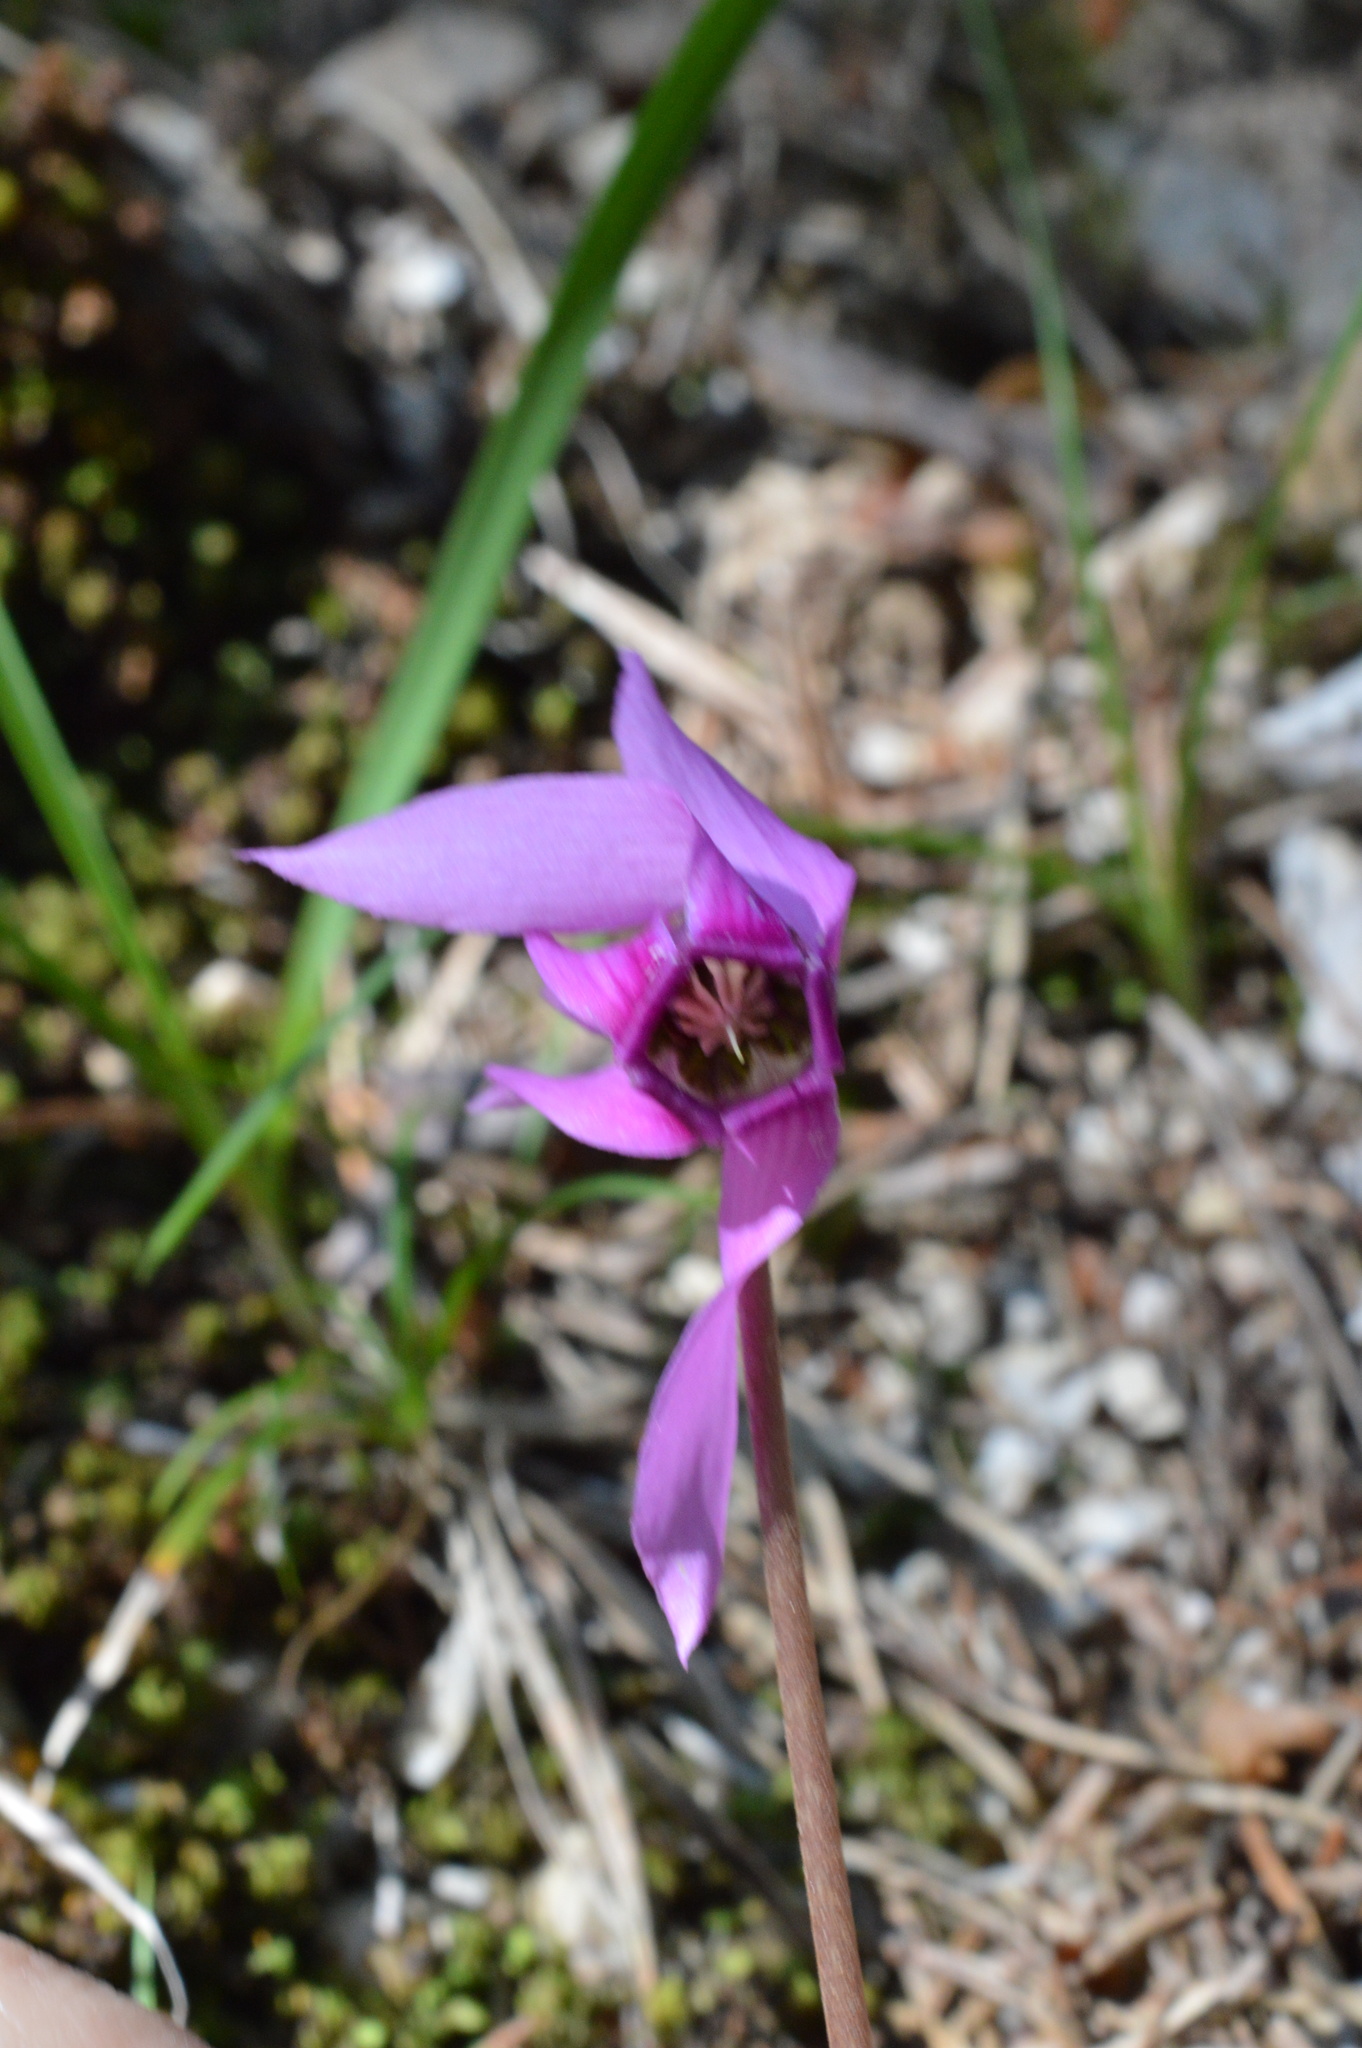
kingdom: Plantae
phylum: Tracheophyta
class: Magnoliopsida
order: Ericales
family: Primulaceae
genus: Cyclamen
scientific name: Cyclamen purpurascens
